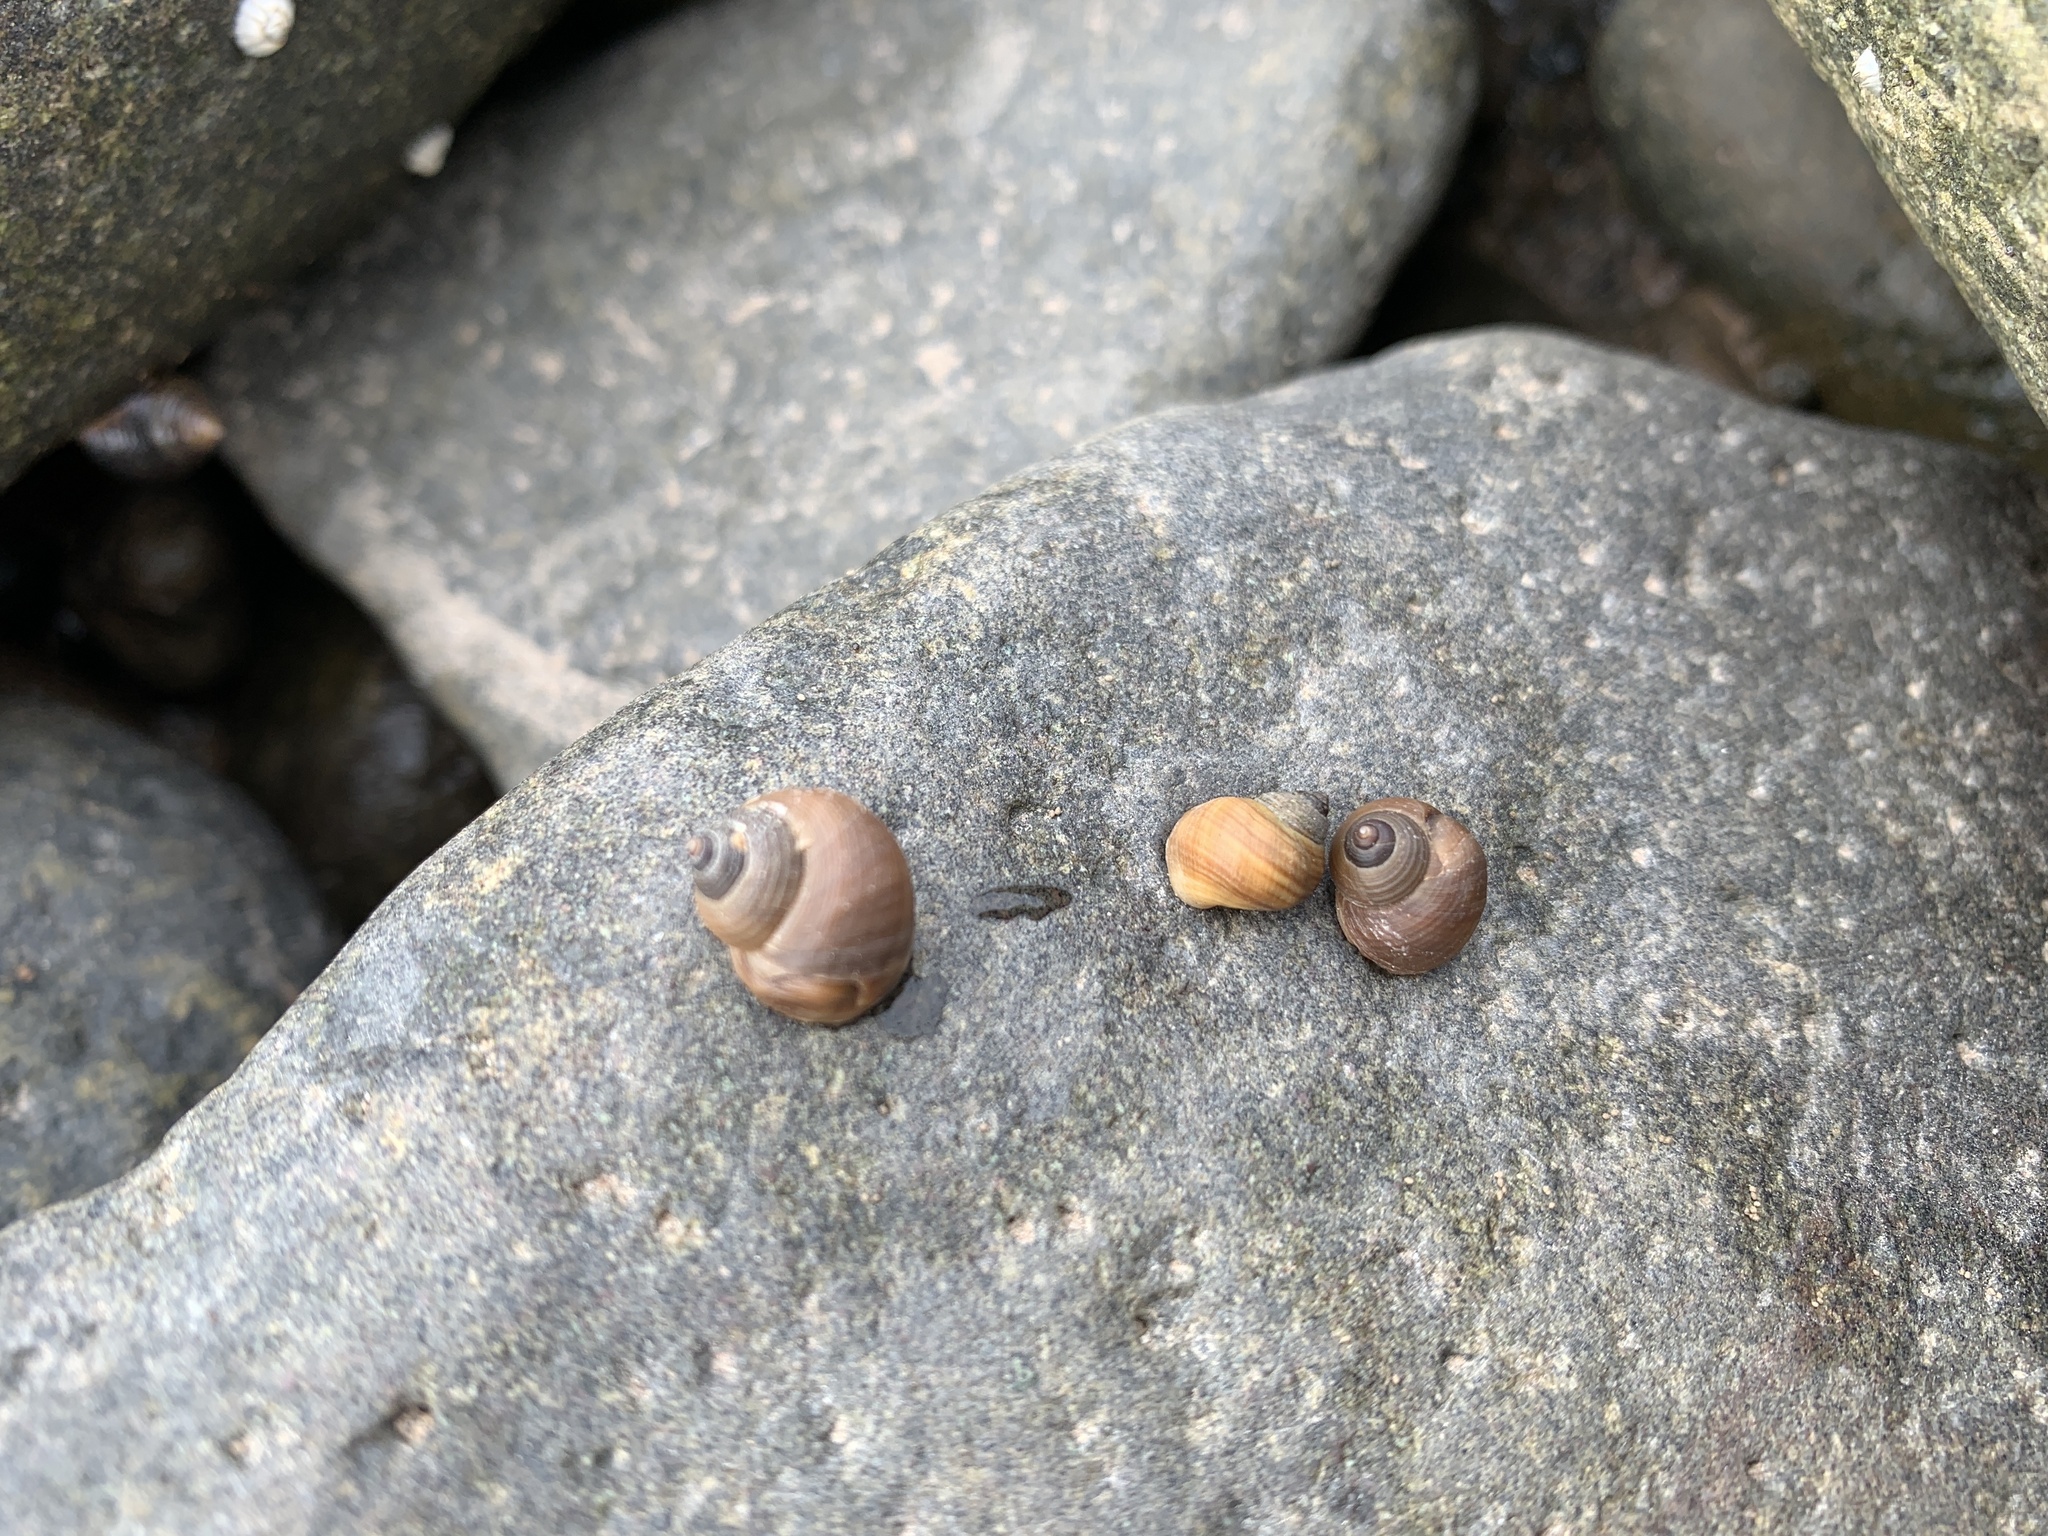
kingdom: Animalia
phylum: Mollusca
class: Gastropoda
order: Littorinimorpha
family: Littorinidae
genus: Littorina
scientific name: Littorina saxatilis
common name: Black-lined periwinkle
